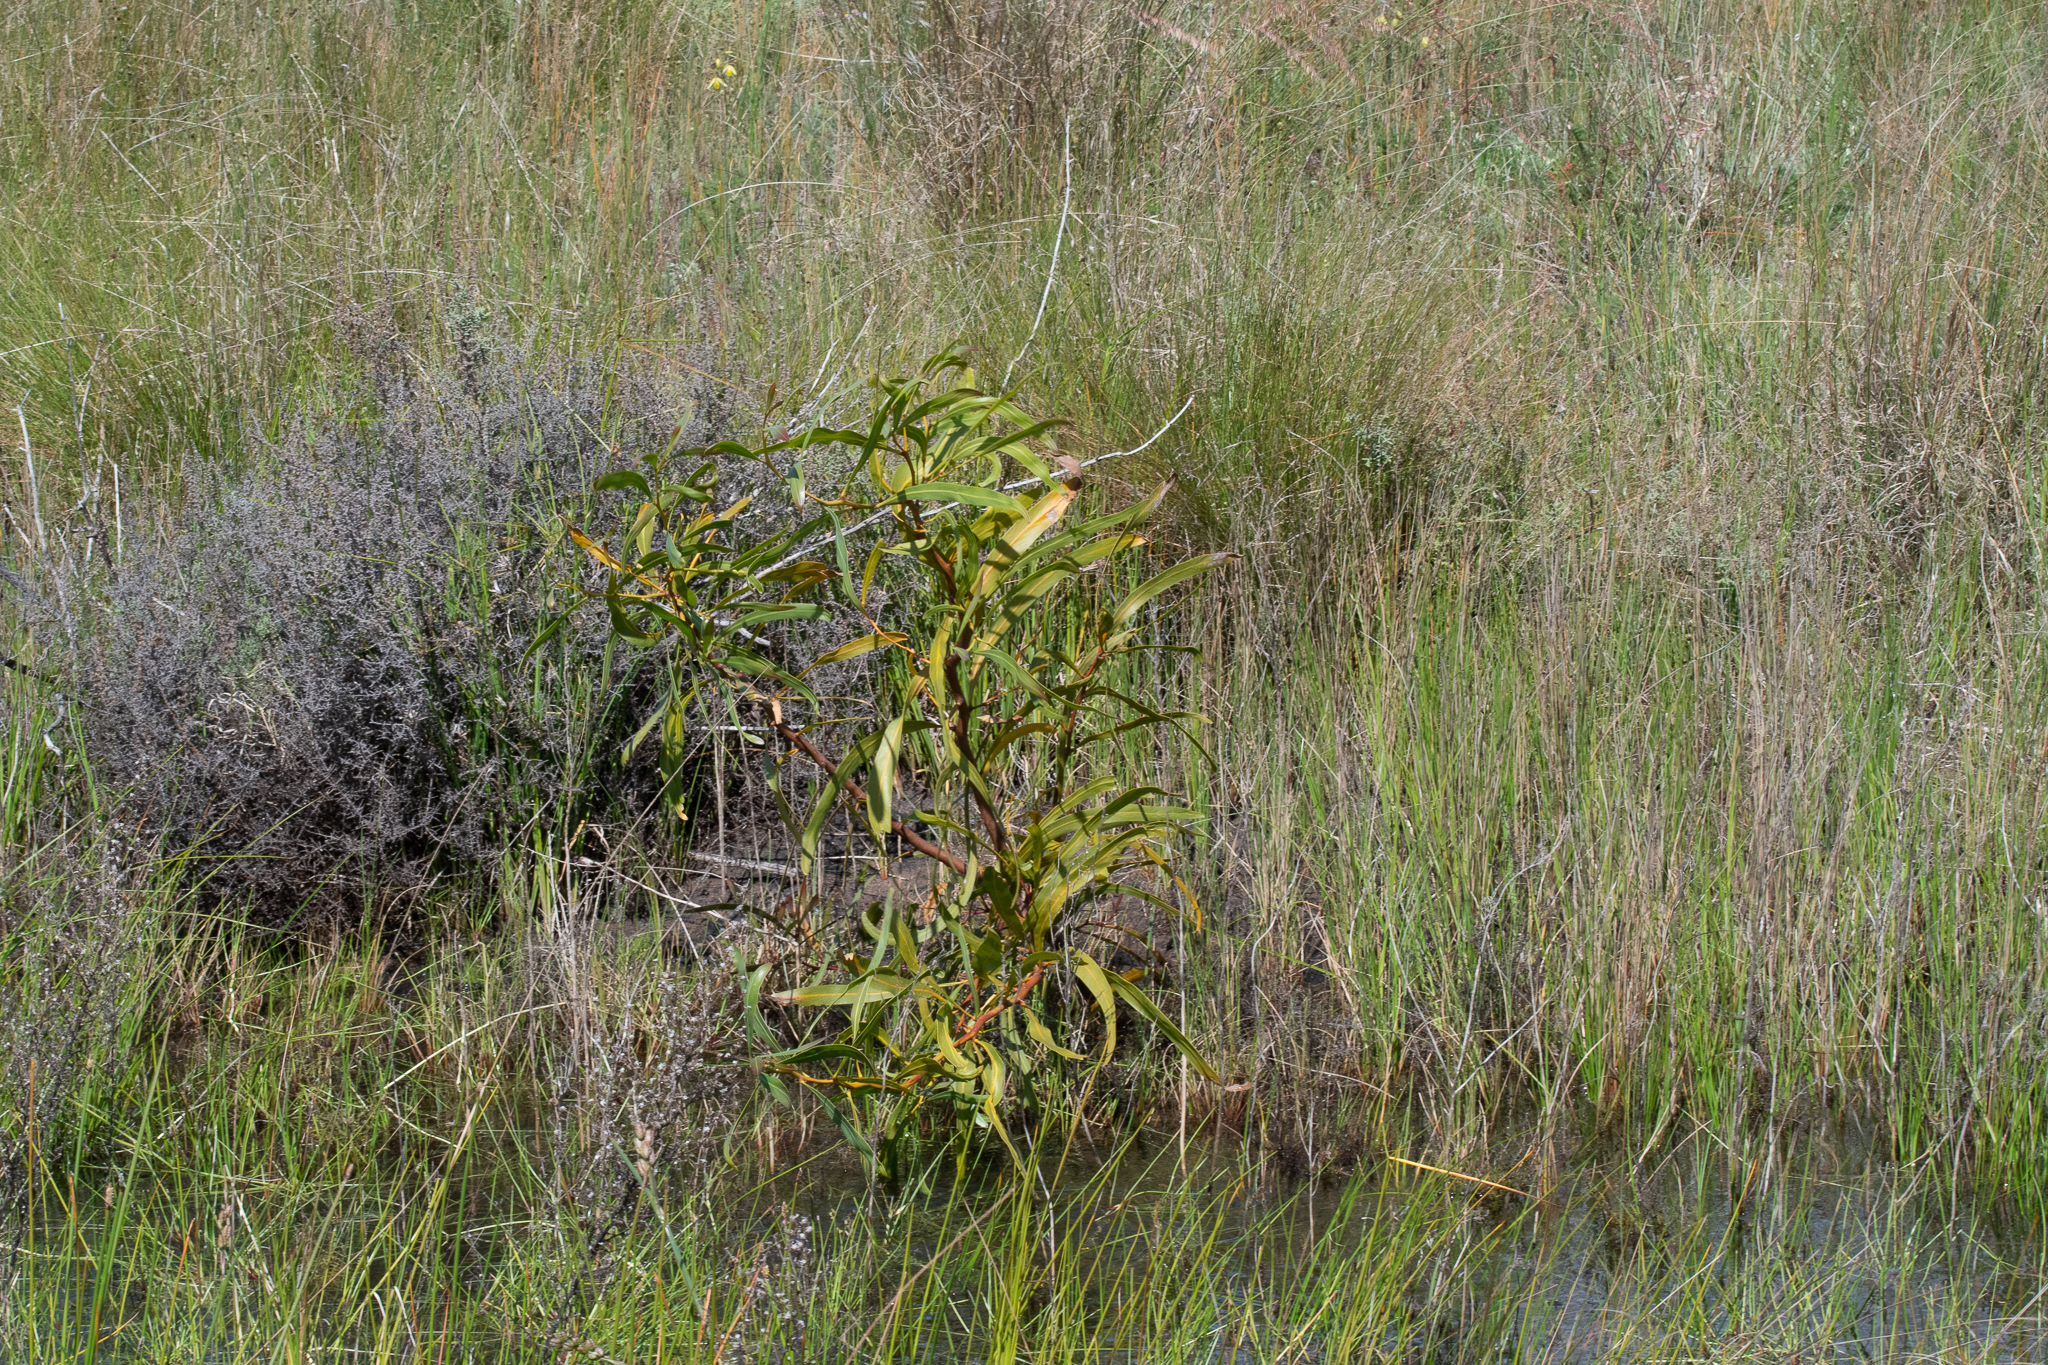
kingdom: Plantae
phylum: Tracheophyta
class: Magnoliopsida
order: Fabales
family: Fabaceae
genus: Acacia
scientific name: Acacia saligna
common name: Orange wattle
